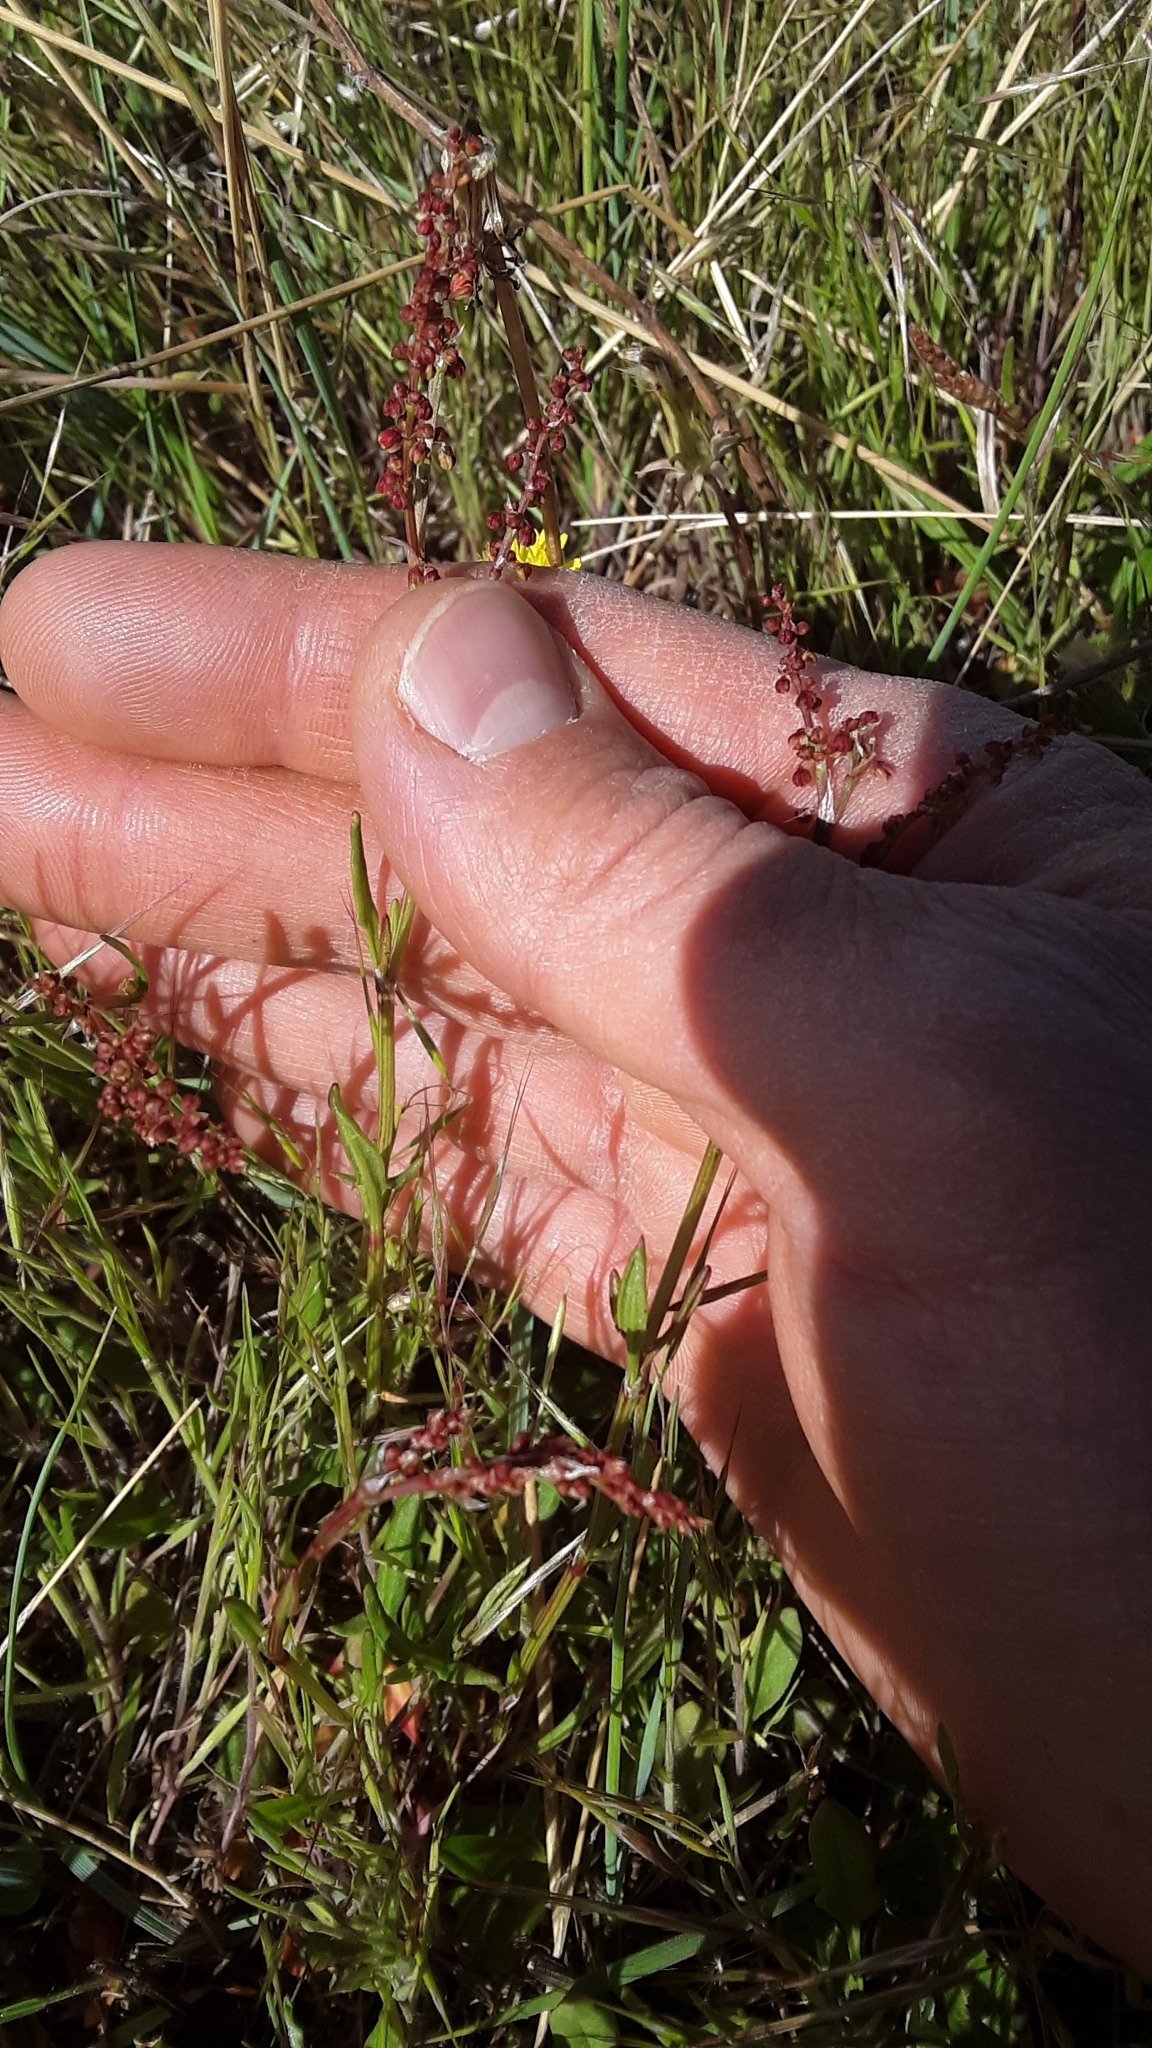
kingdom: Plantae
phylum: Tracheophyta
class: Magnoliopsida
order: Caryophyllales
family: Polygonaceae
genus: Rumex
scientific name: Rumex acetosella
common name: Common sheep sorrel
